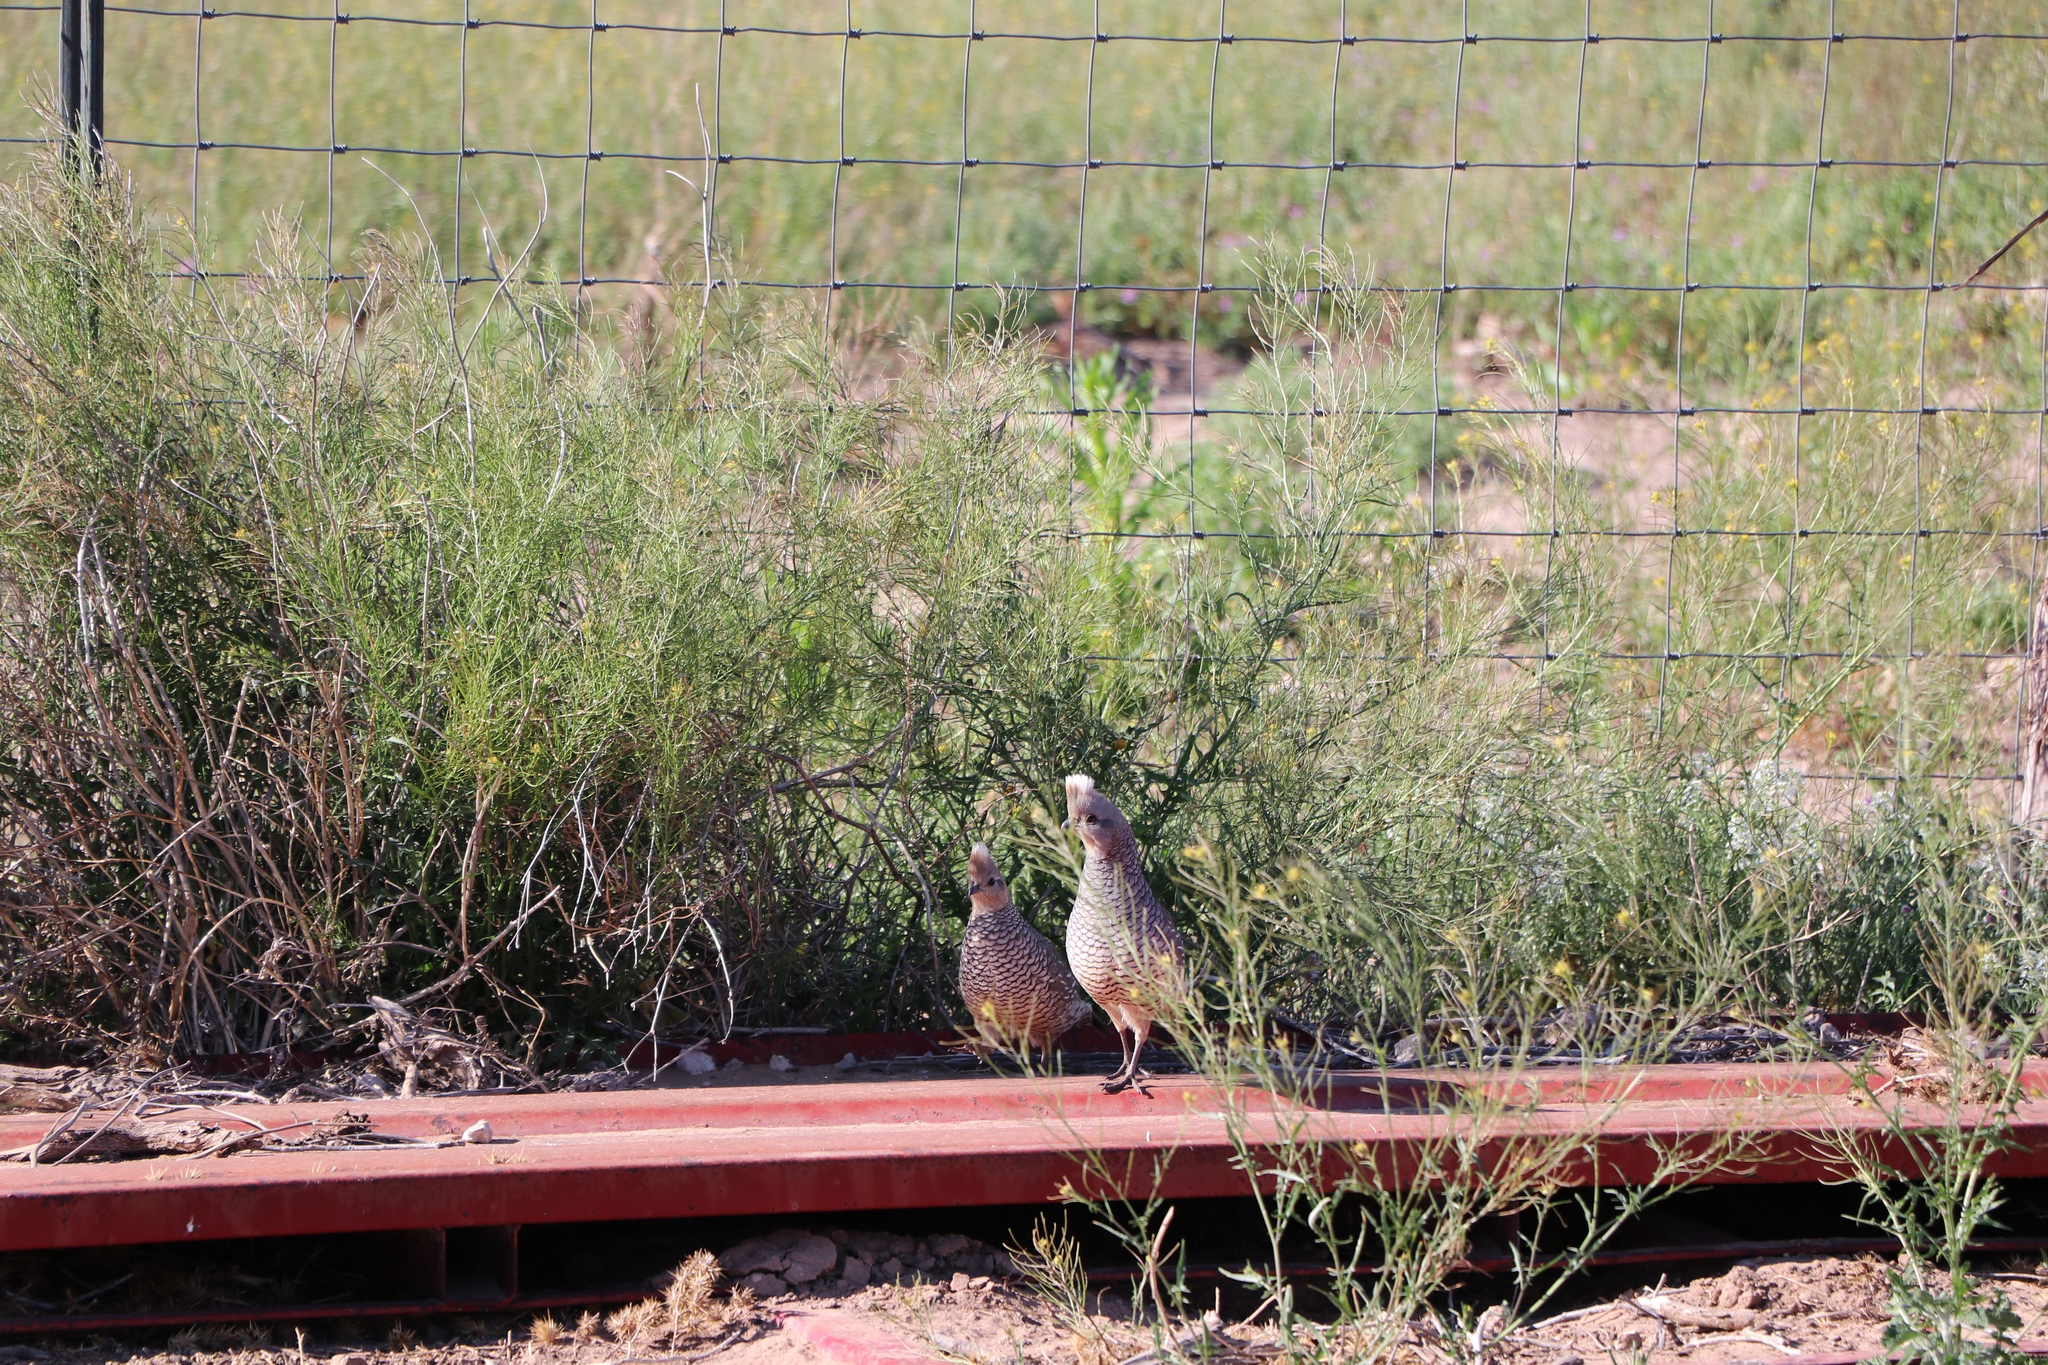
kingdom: Animalia
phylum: Chordata
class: Aves
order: Galliformes
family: Odontophoridae
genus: Callipepla
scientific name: Callipepla squamata
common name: Scaled quail
